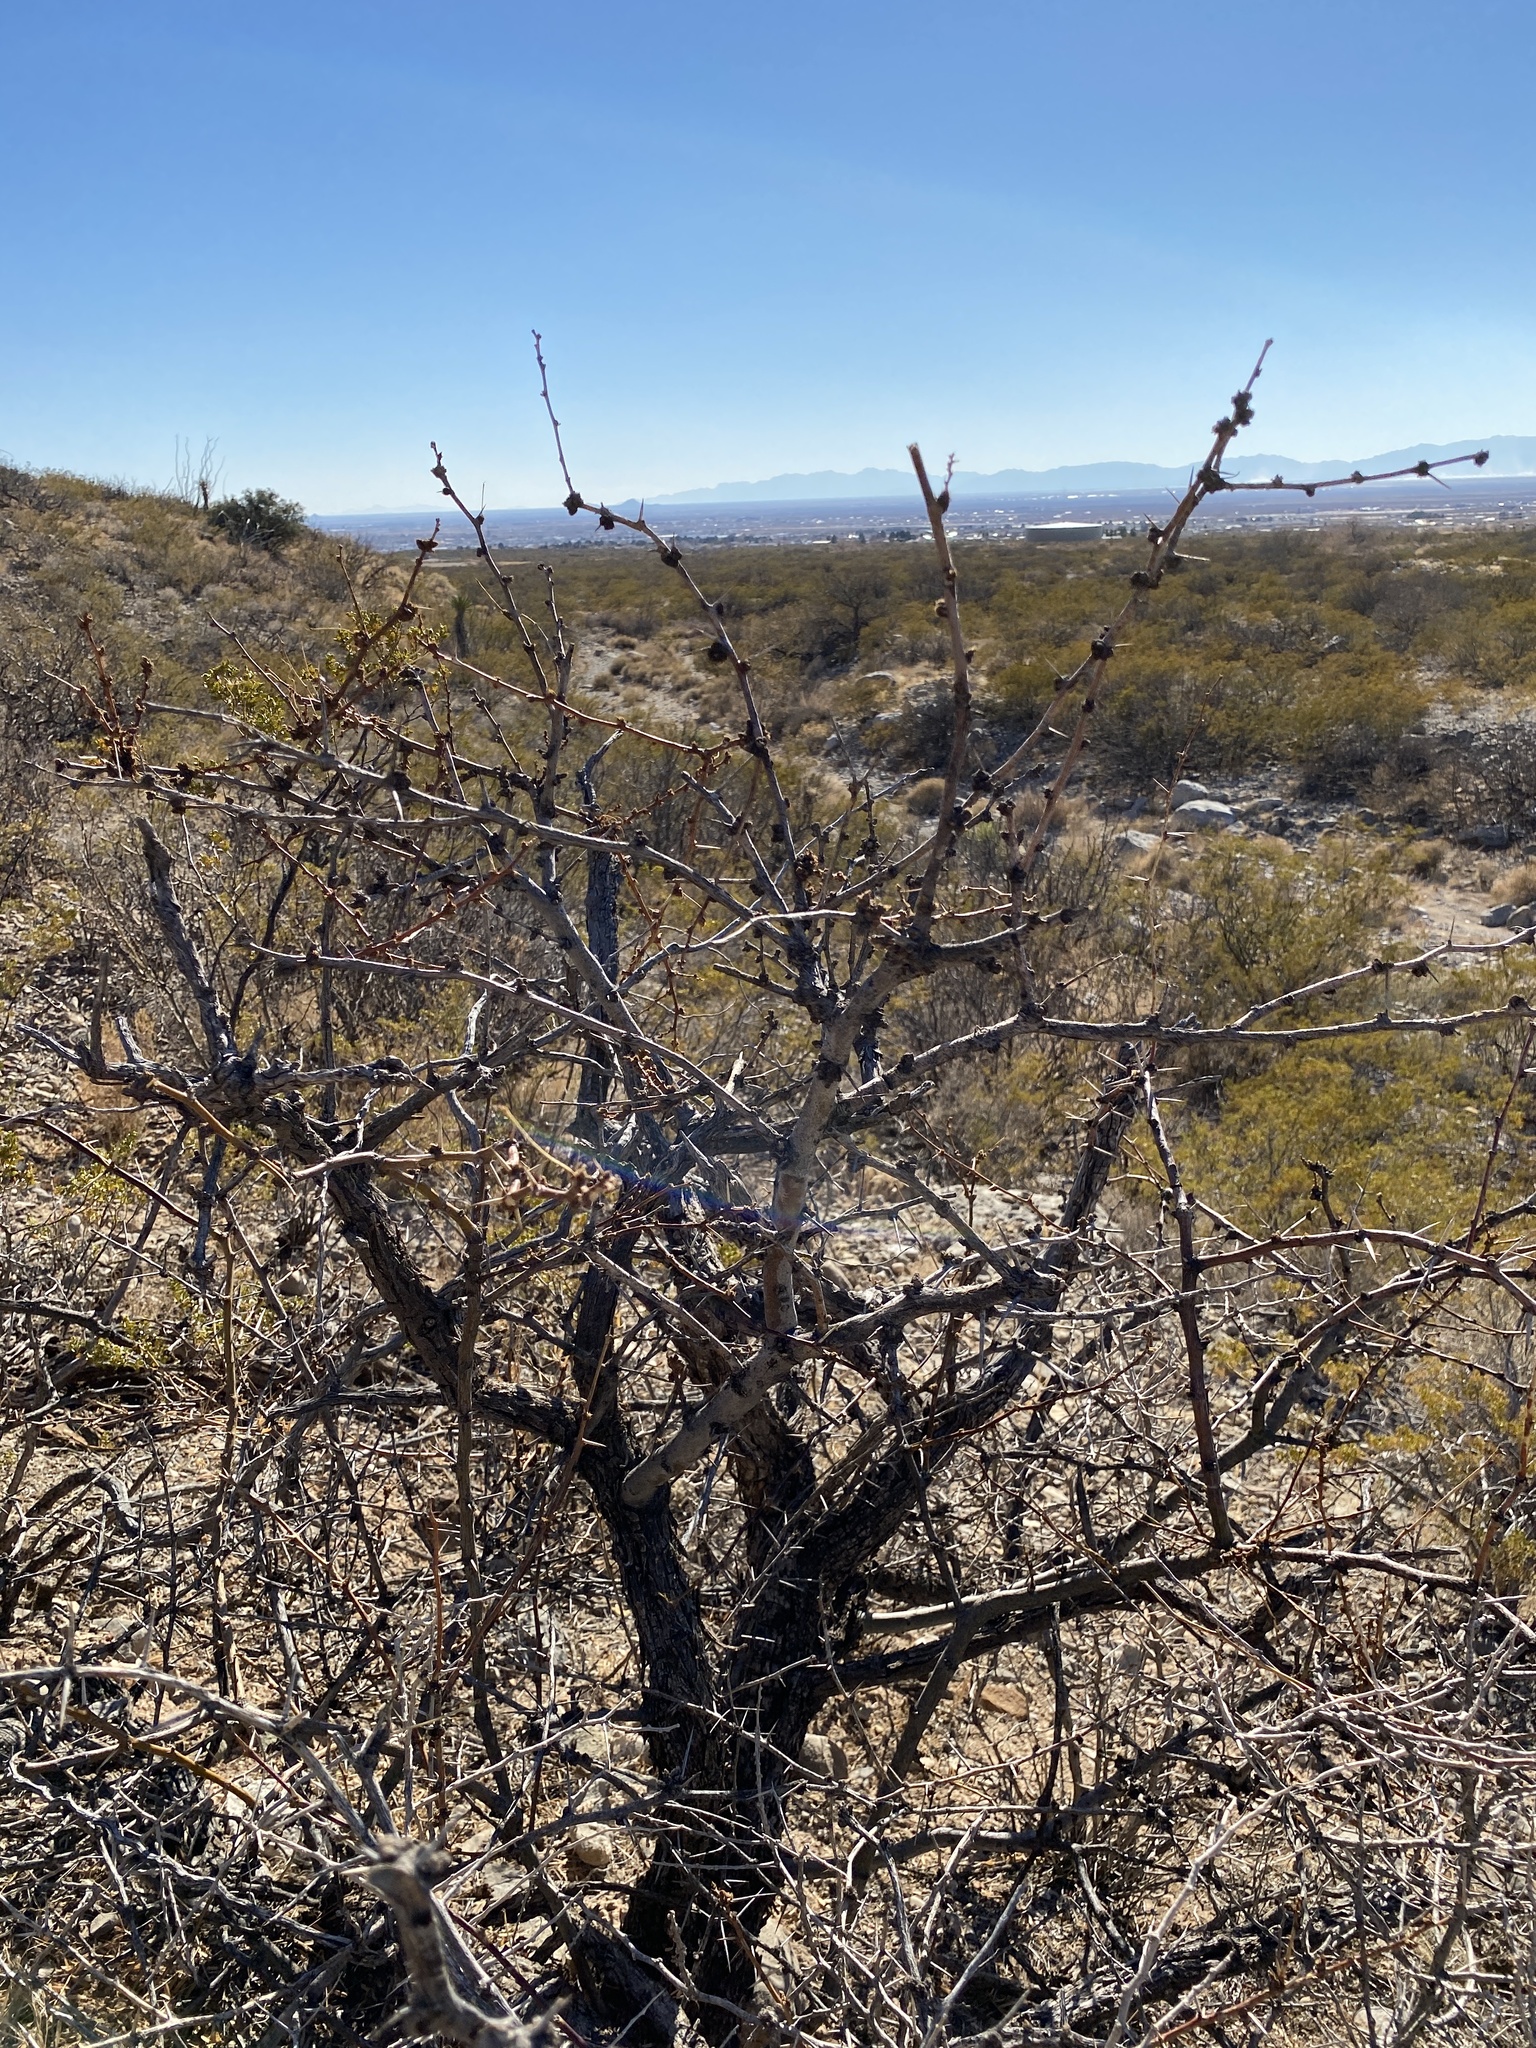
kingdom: Plantae
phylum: Tracheophyta
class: Magnoliopsida
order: Fabales
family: Fabaceae
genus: Prosopis
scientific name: Prosopis glandulosa
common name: Honey mesquite
